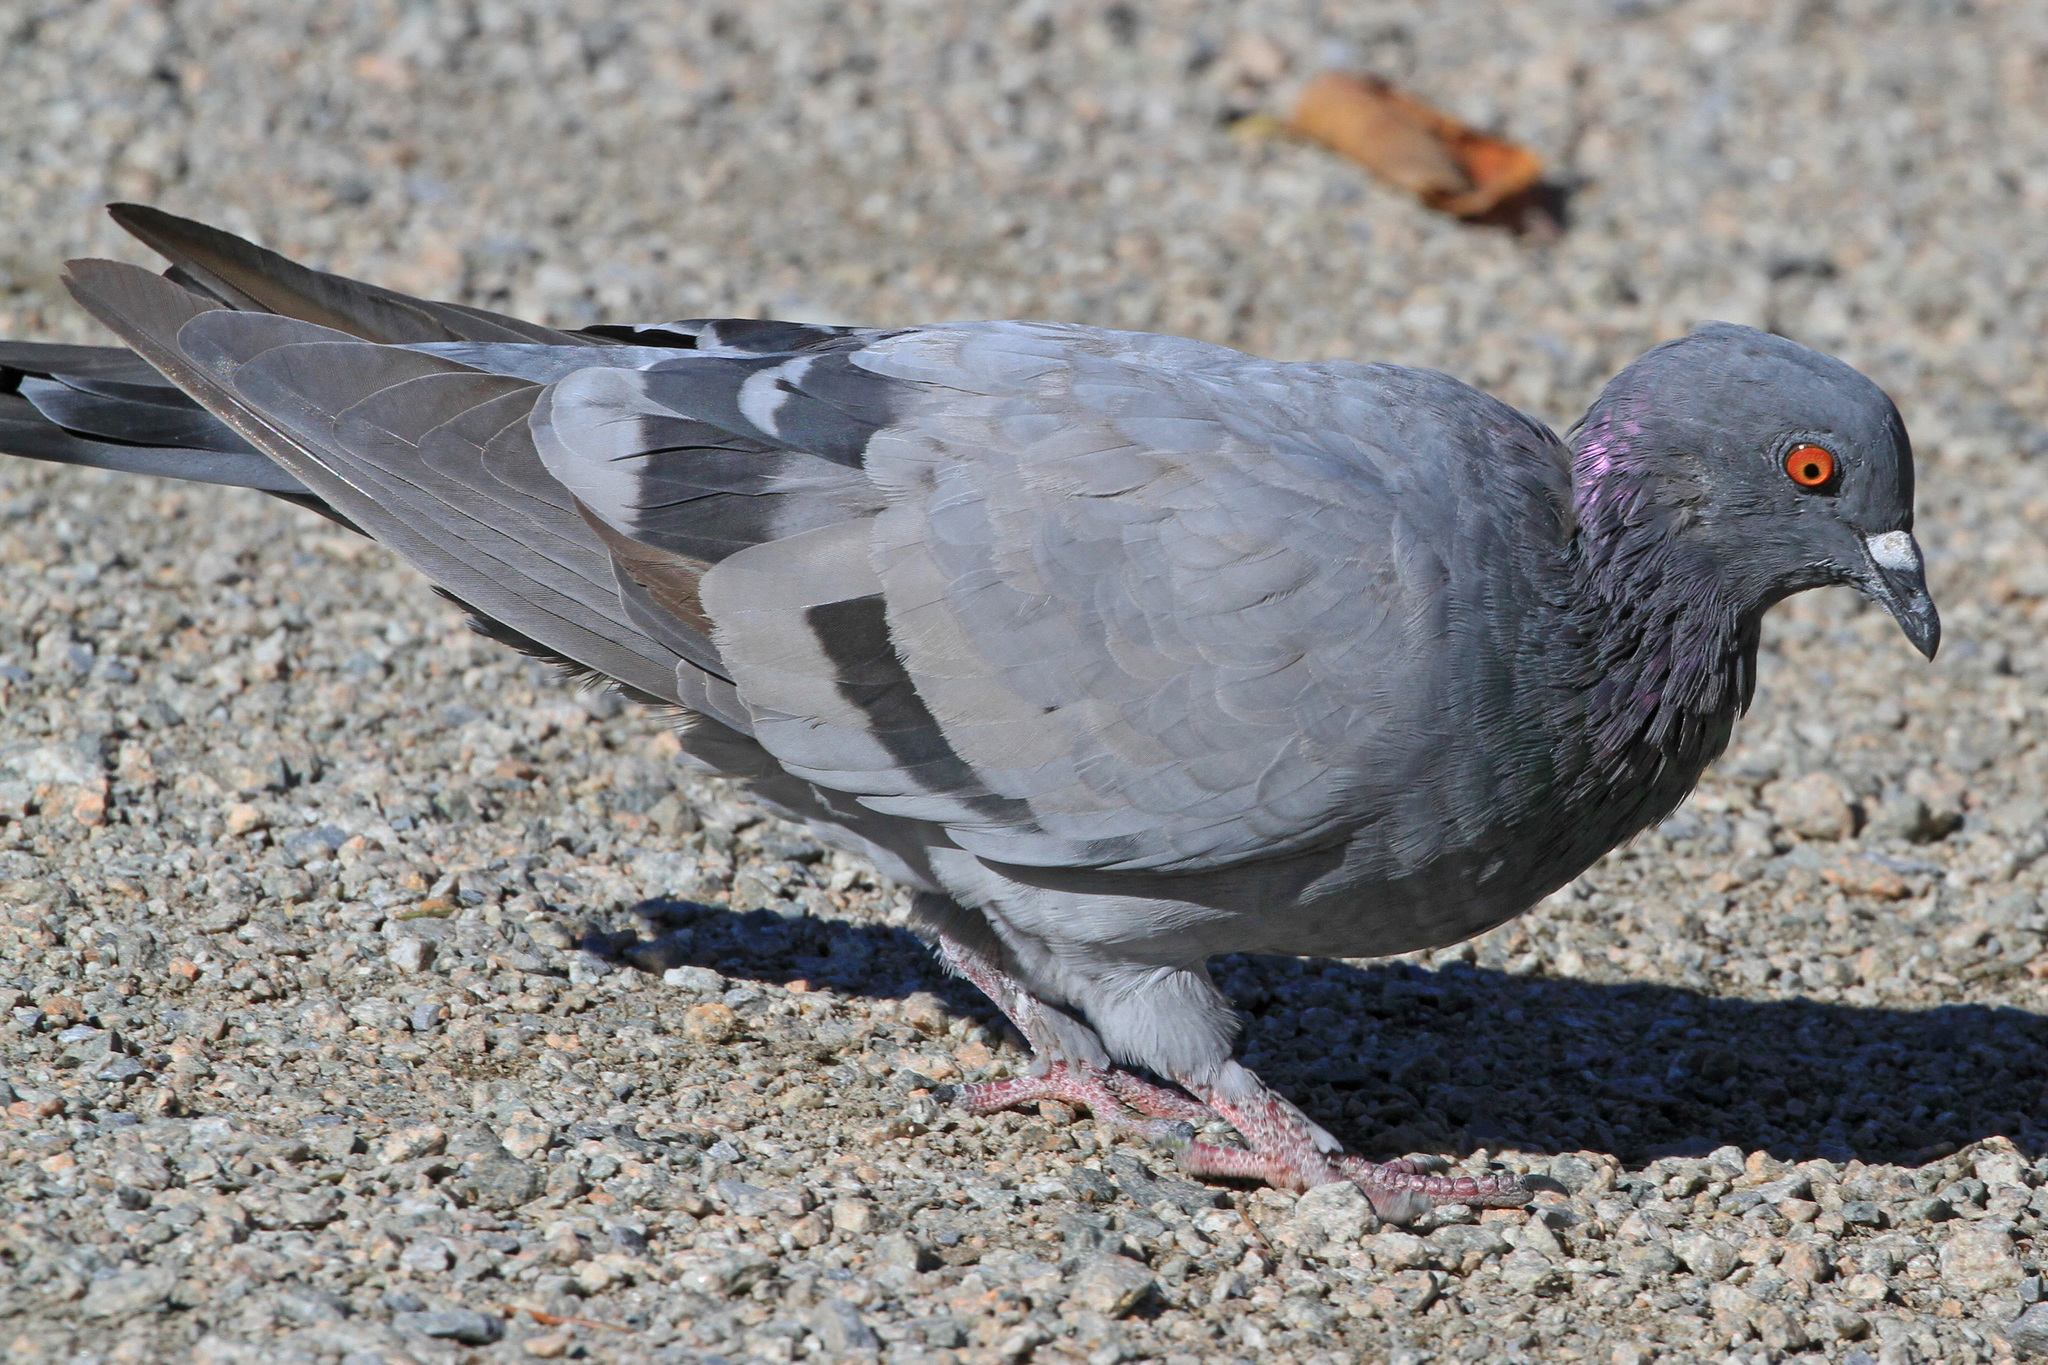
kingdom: Animalia
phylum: Chordata
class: Aves
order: Columbiformes
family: Columbidae
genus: Columba
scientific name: Columba livia
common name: Rock pigeon
